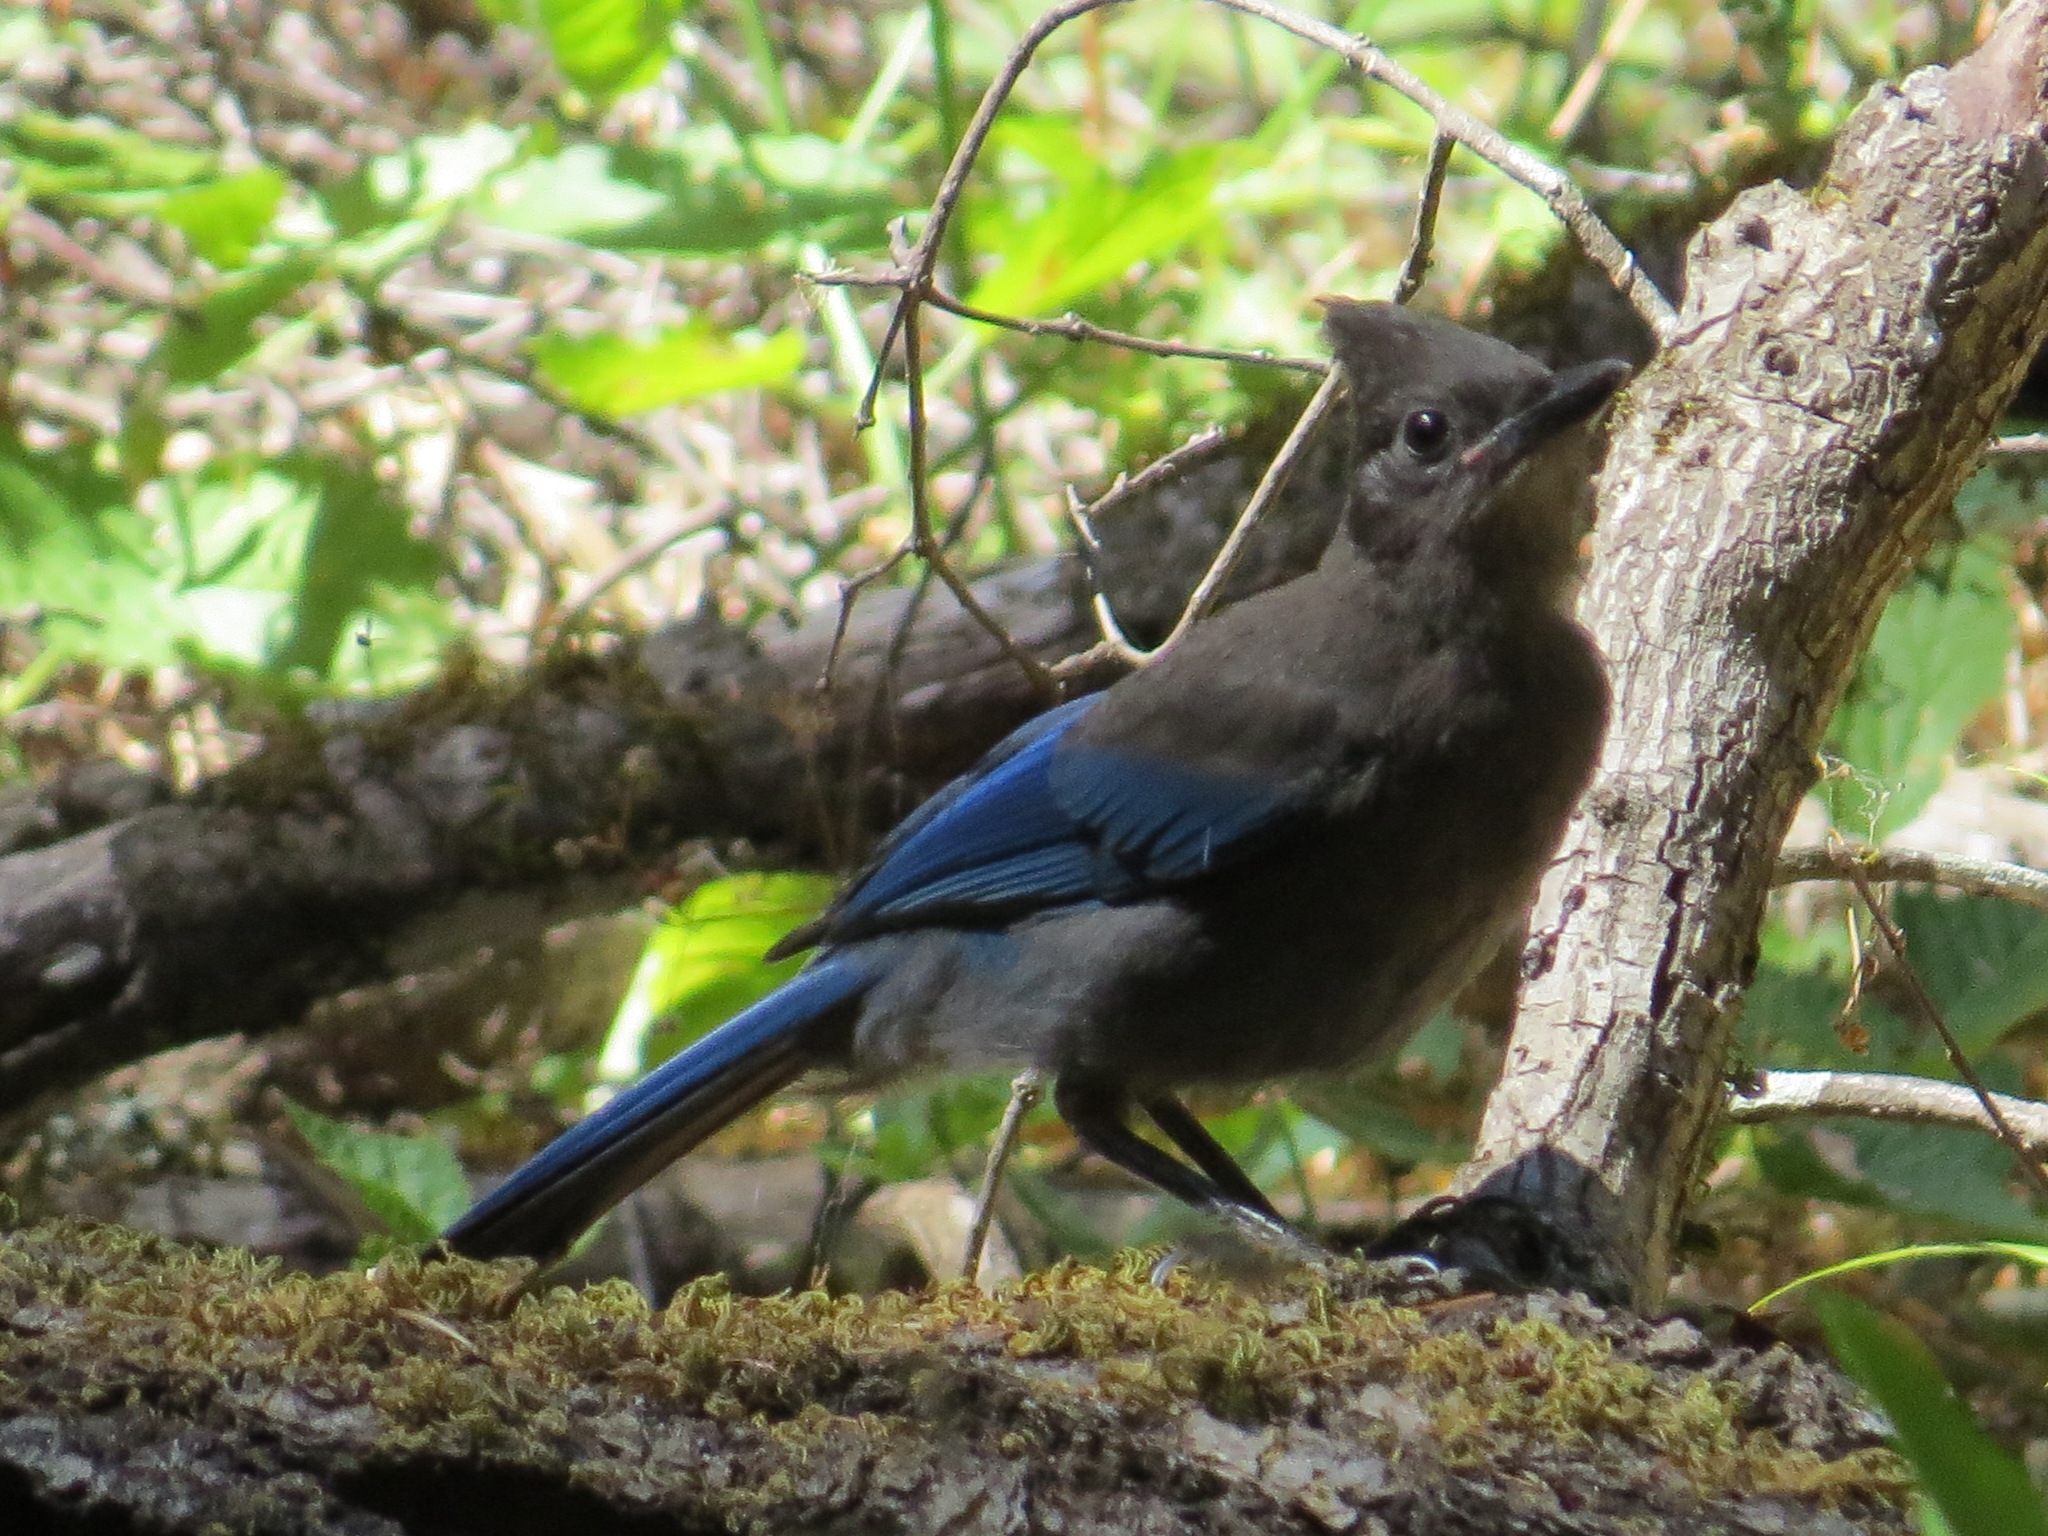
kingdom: Animalia
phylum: Chordata
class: Aves
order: Passeriformes
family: Corvidae
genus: Cyanocitta
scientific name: Cyanocitta stelleri
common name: Steller's jay
